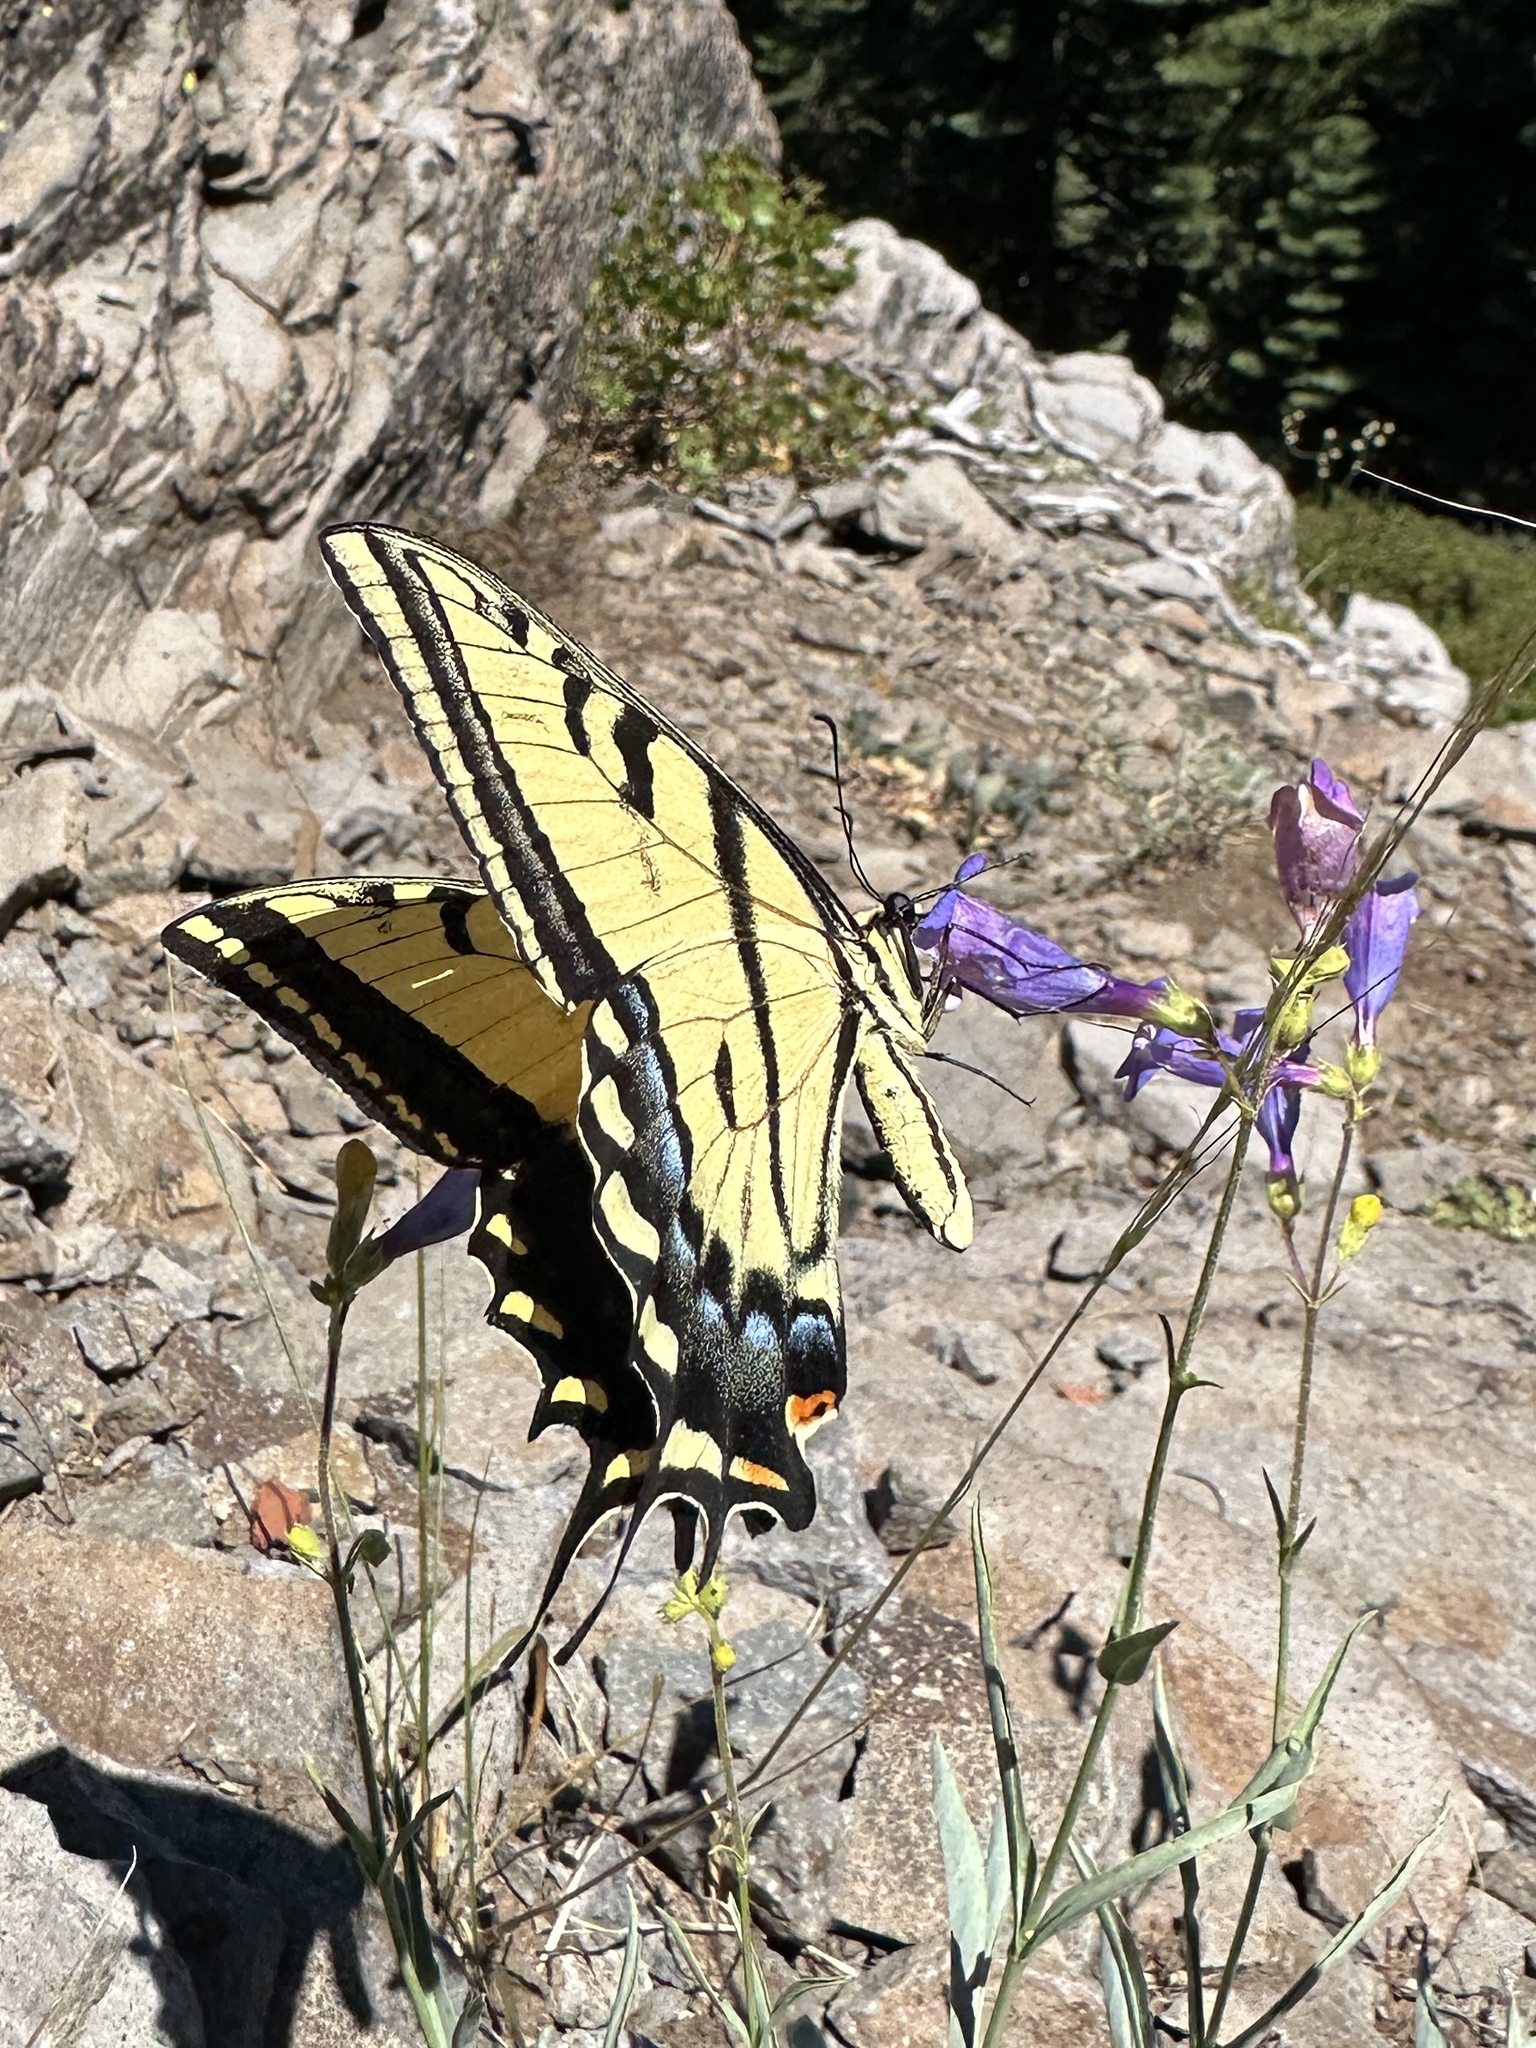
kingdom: Animalia
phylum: Arthropoda
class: Insecta
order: Lepidoptera
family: Papilionidae
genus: Papilio
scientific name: Papilio multicaudata
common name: Two-tailed tiger swallowtail
